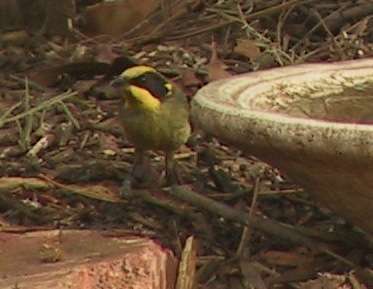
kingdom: Animalia
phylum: Chordata
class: Aves
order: Passeriformes
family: Meliphagidae
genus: Lichenostomus
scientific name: Lichenostomus melanops
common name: Yellow-tufted honeyeater
